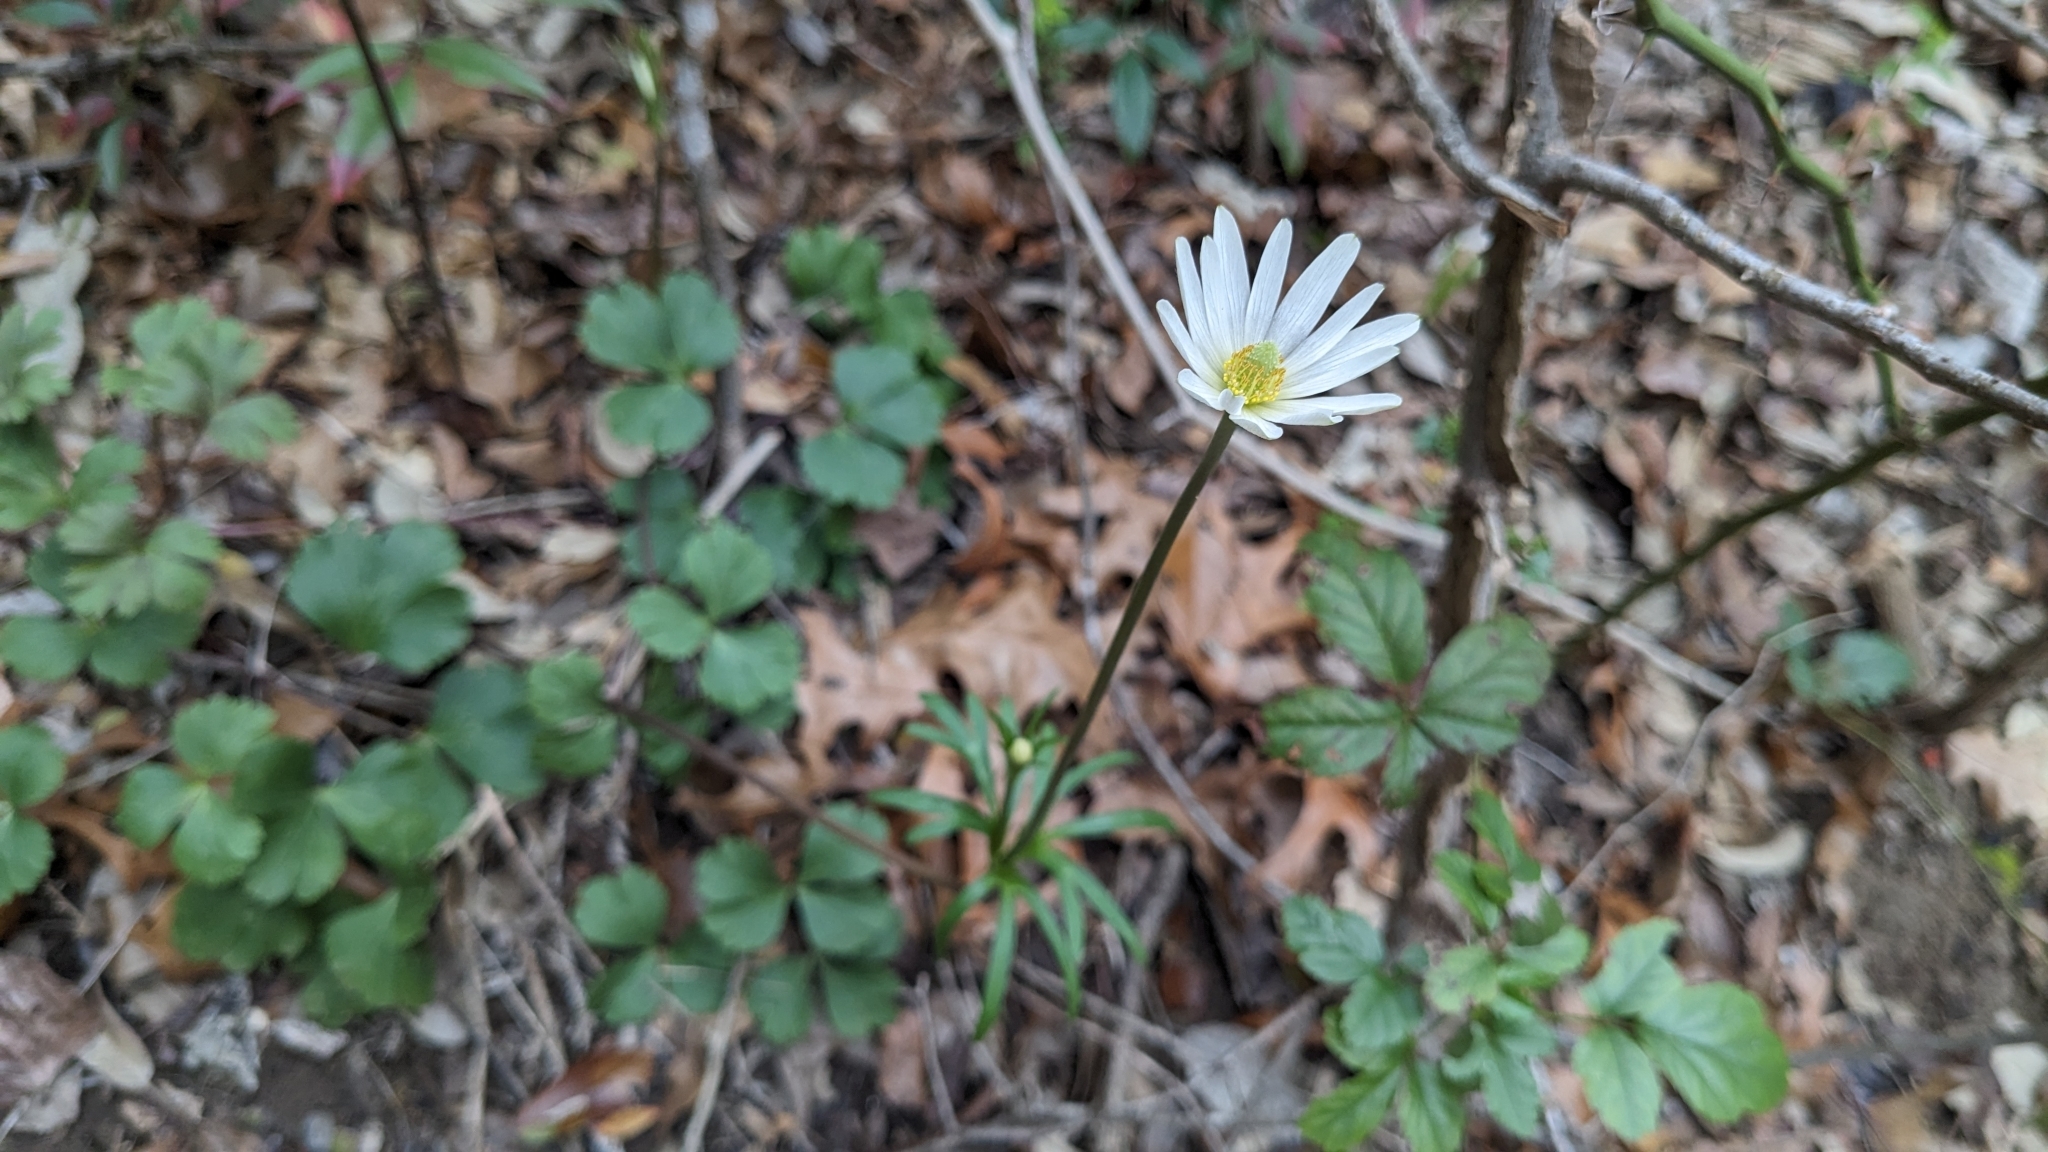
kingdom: Plantae
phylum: Tracheophyta
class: Magnoliopsida
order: Ranunculales
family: Ranunculaceae
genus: Anemone
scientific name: Anemone edwardsiana
